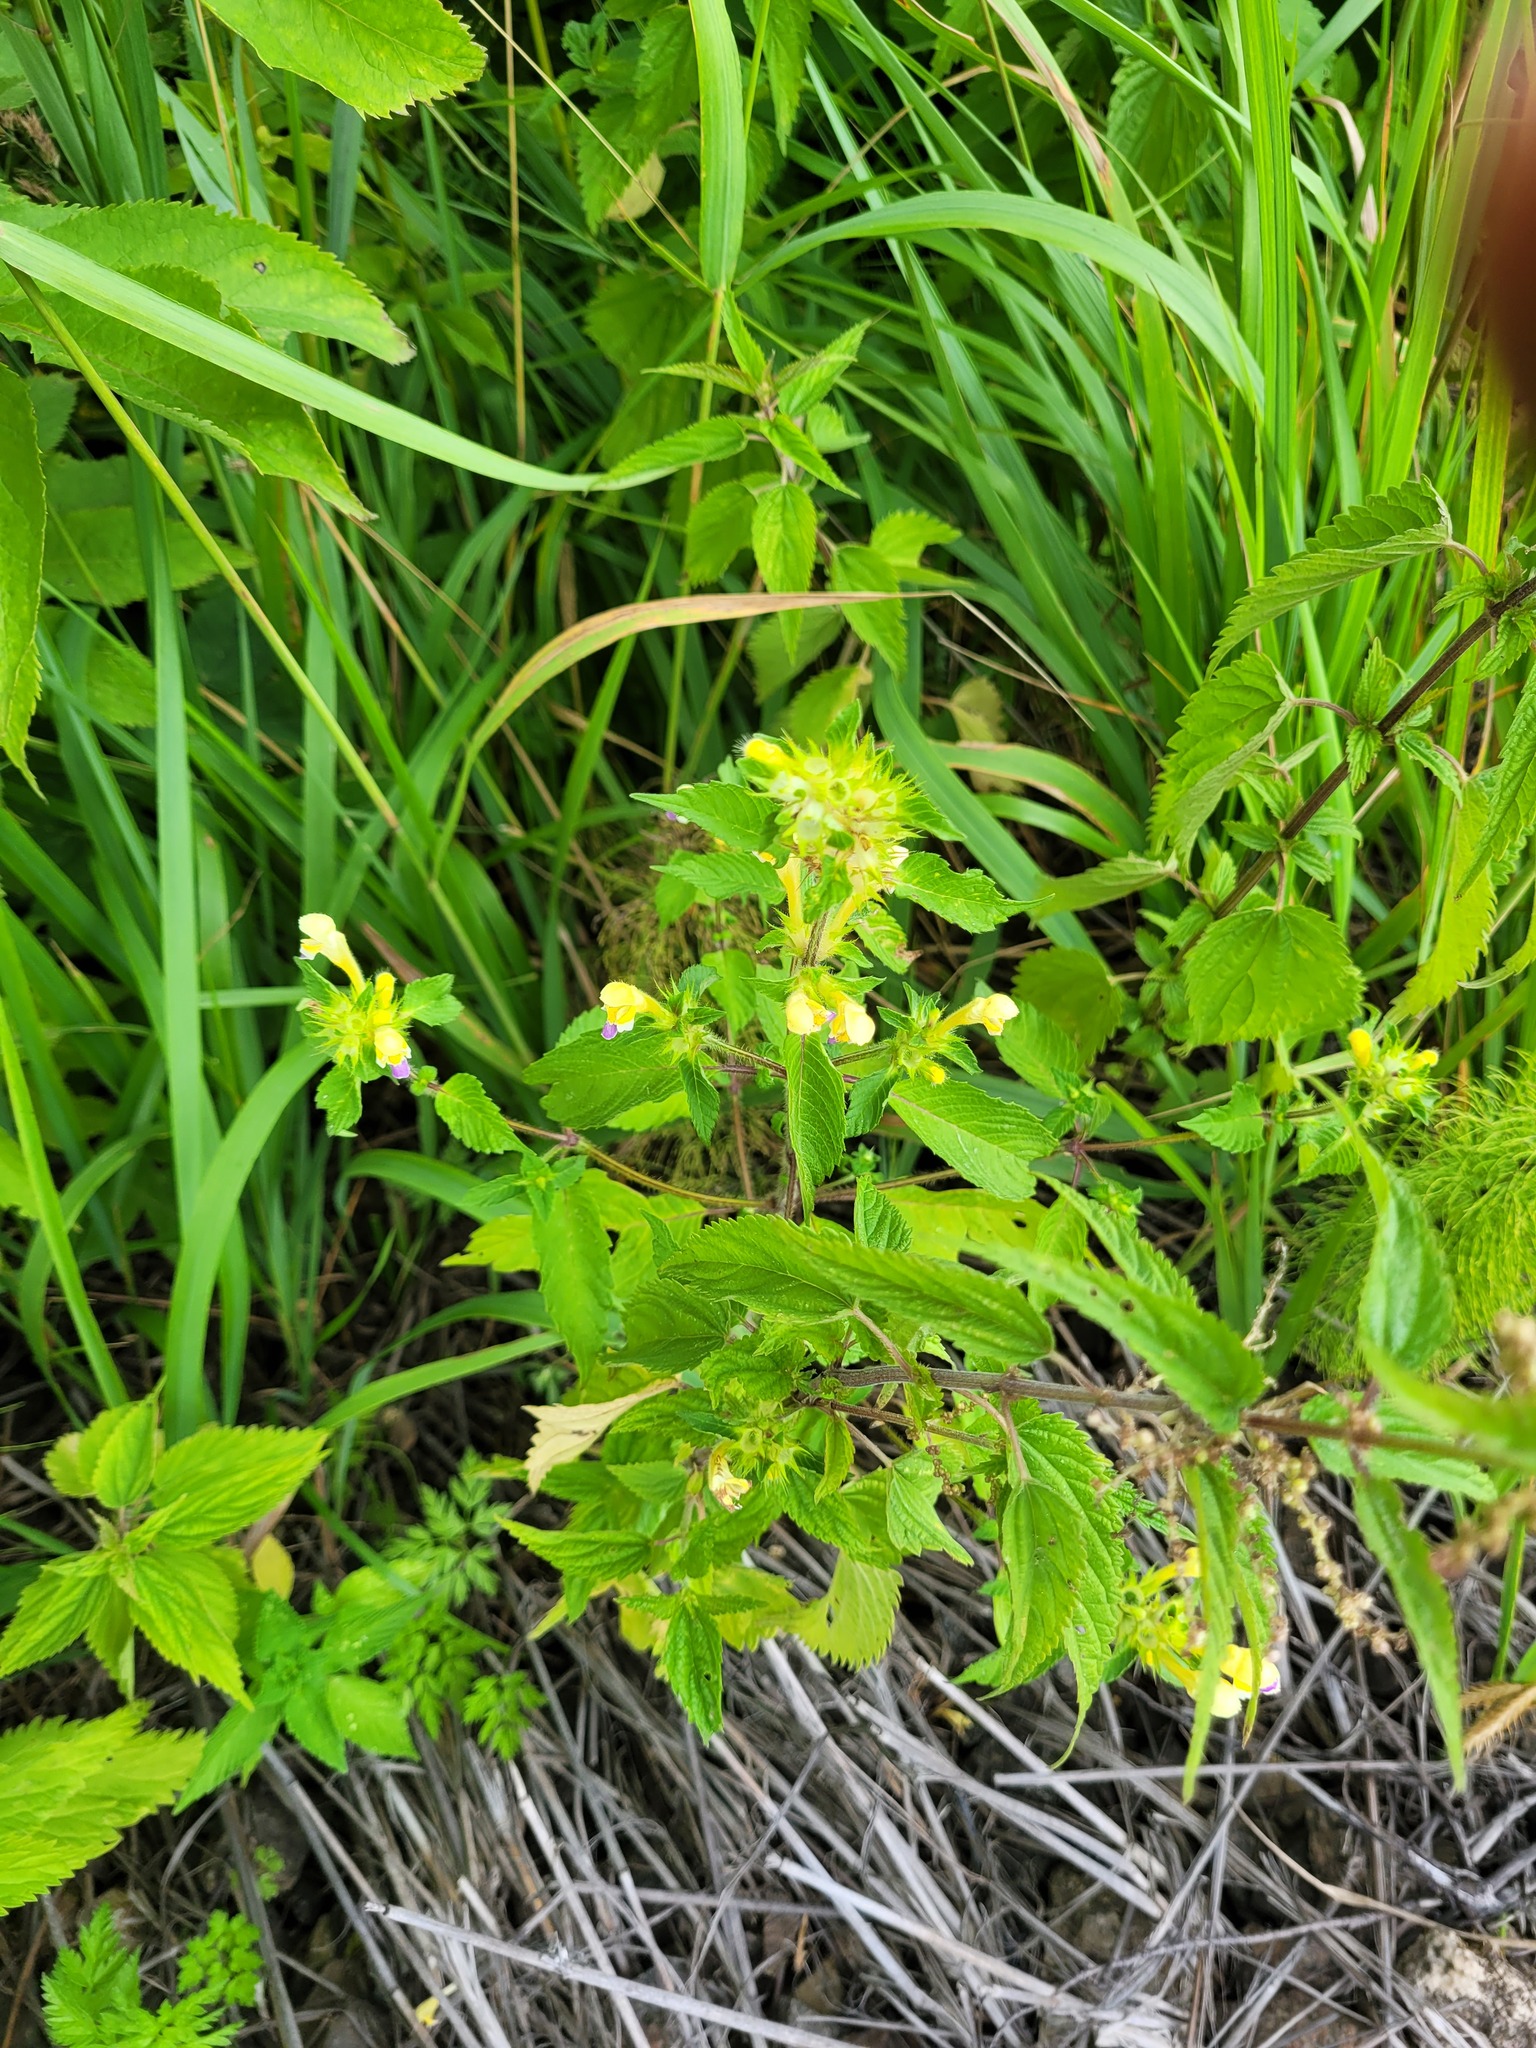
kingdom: Plantae
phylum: Tracheophyta
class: Magnoliopsida
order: Lamiales
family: Lamiaceae
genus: Galeopsis
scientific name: Galeopsis speciosa
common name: Large-flowered hemp-nettle
